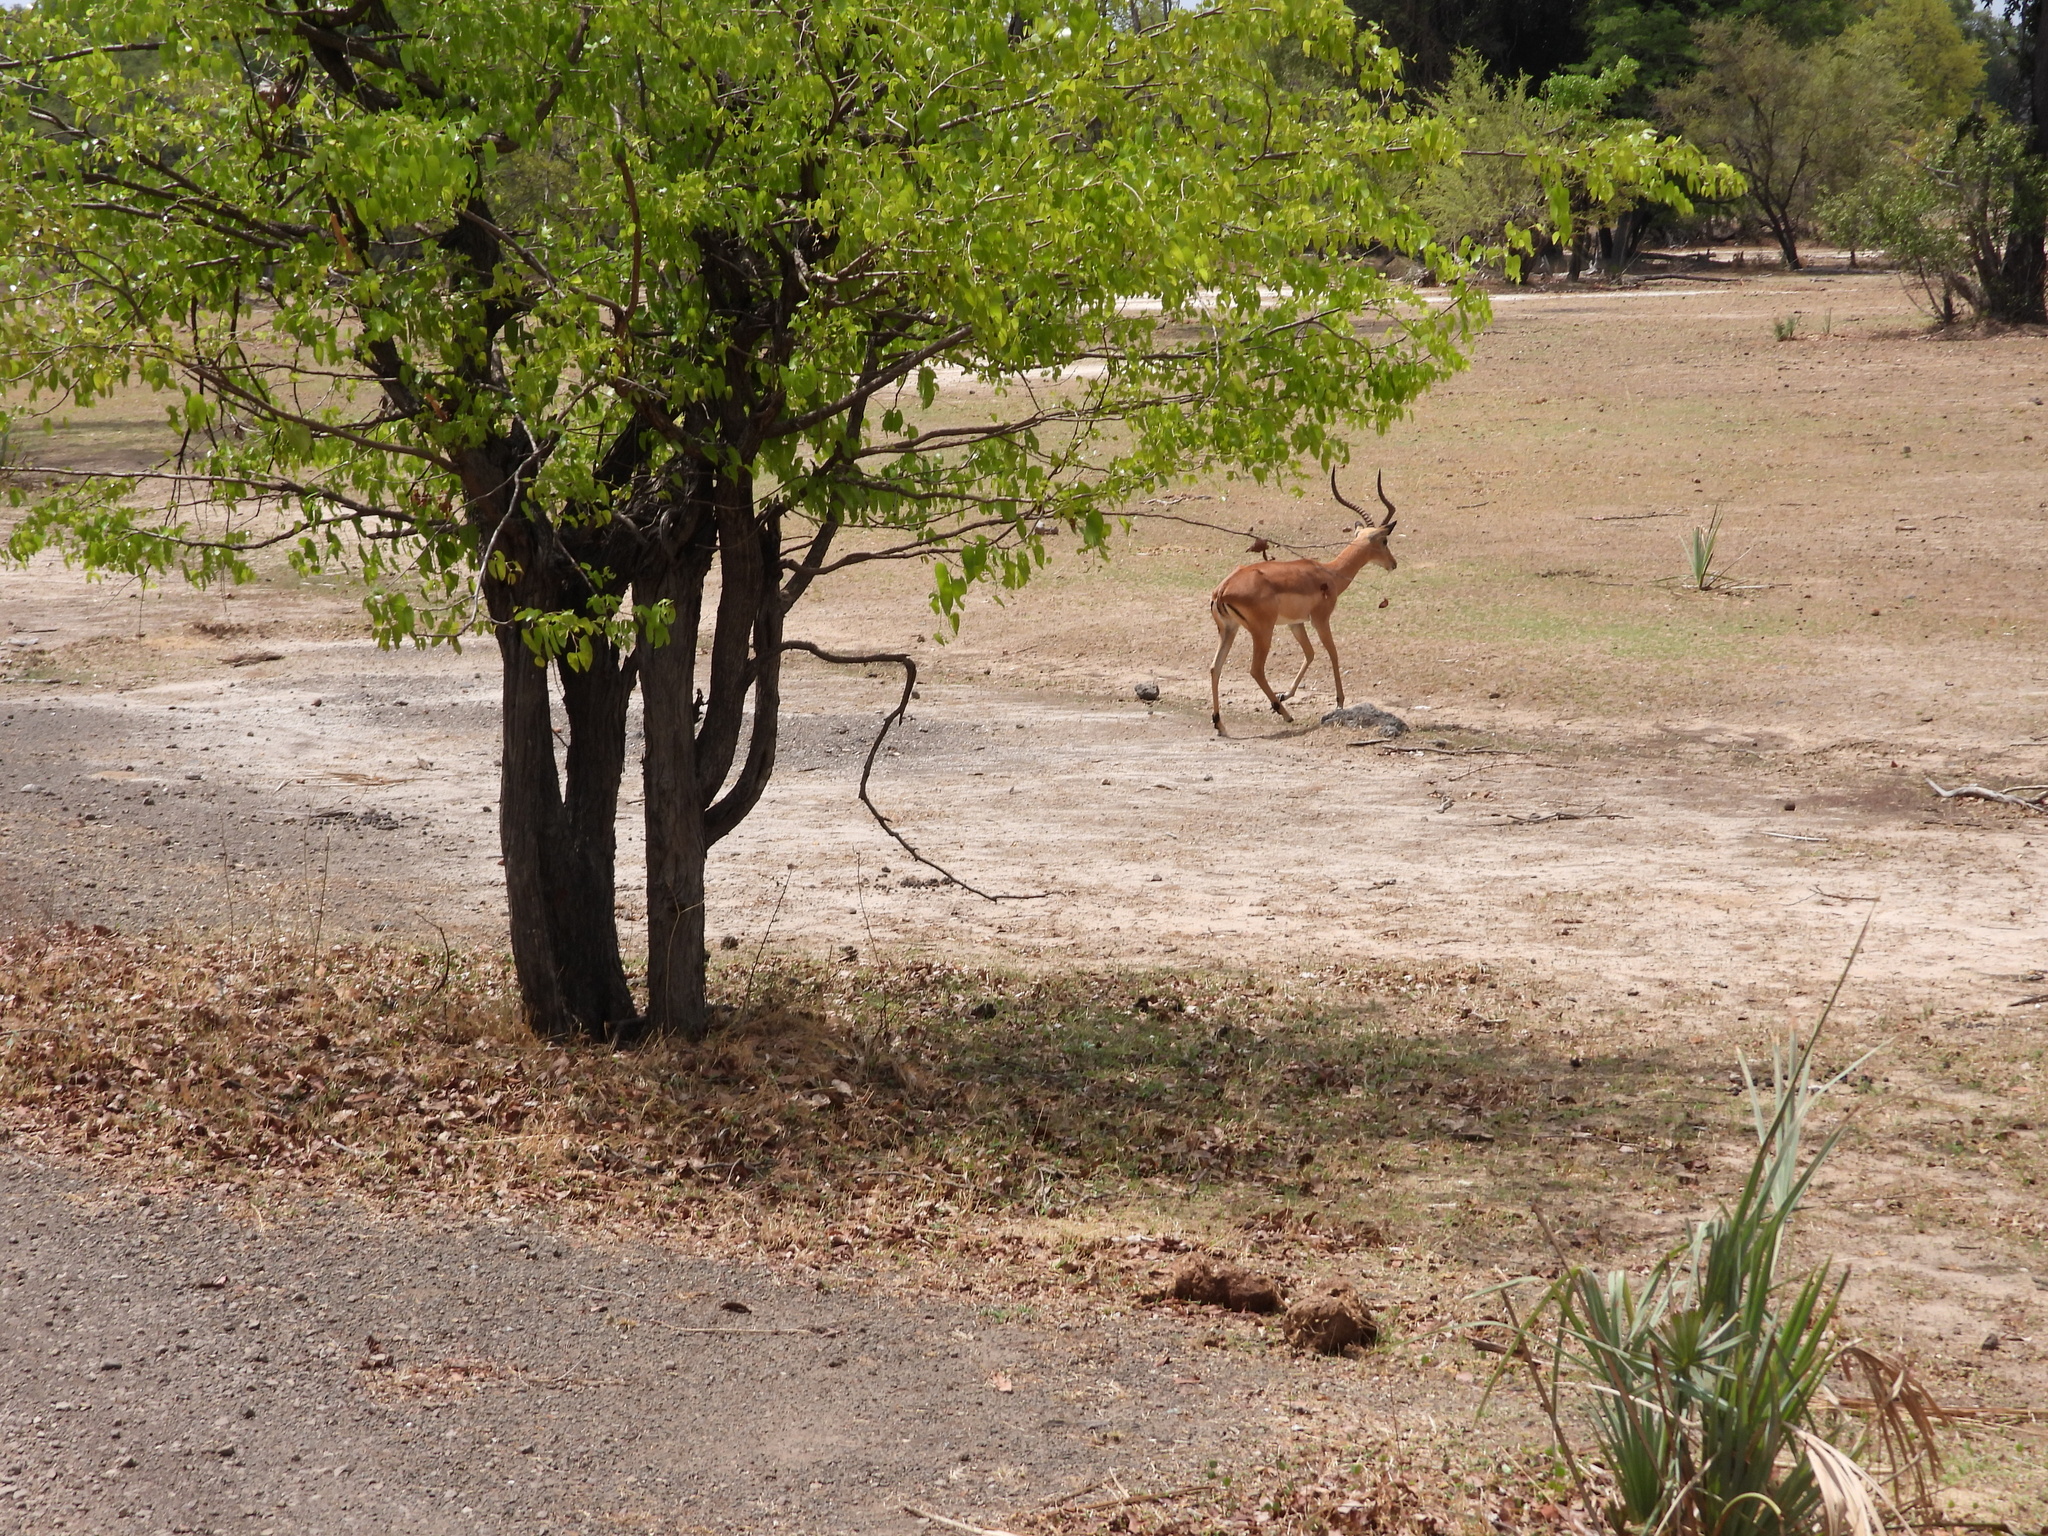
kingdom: Animalia
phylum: Chordata
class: Mammalia
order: Artiodactyla
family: Bovidae
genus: Aepyceros
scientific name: Aepyceros melampus
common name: Impala
